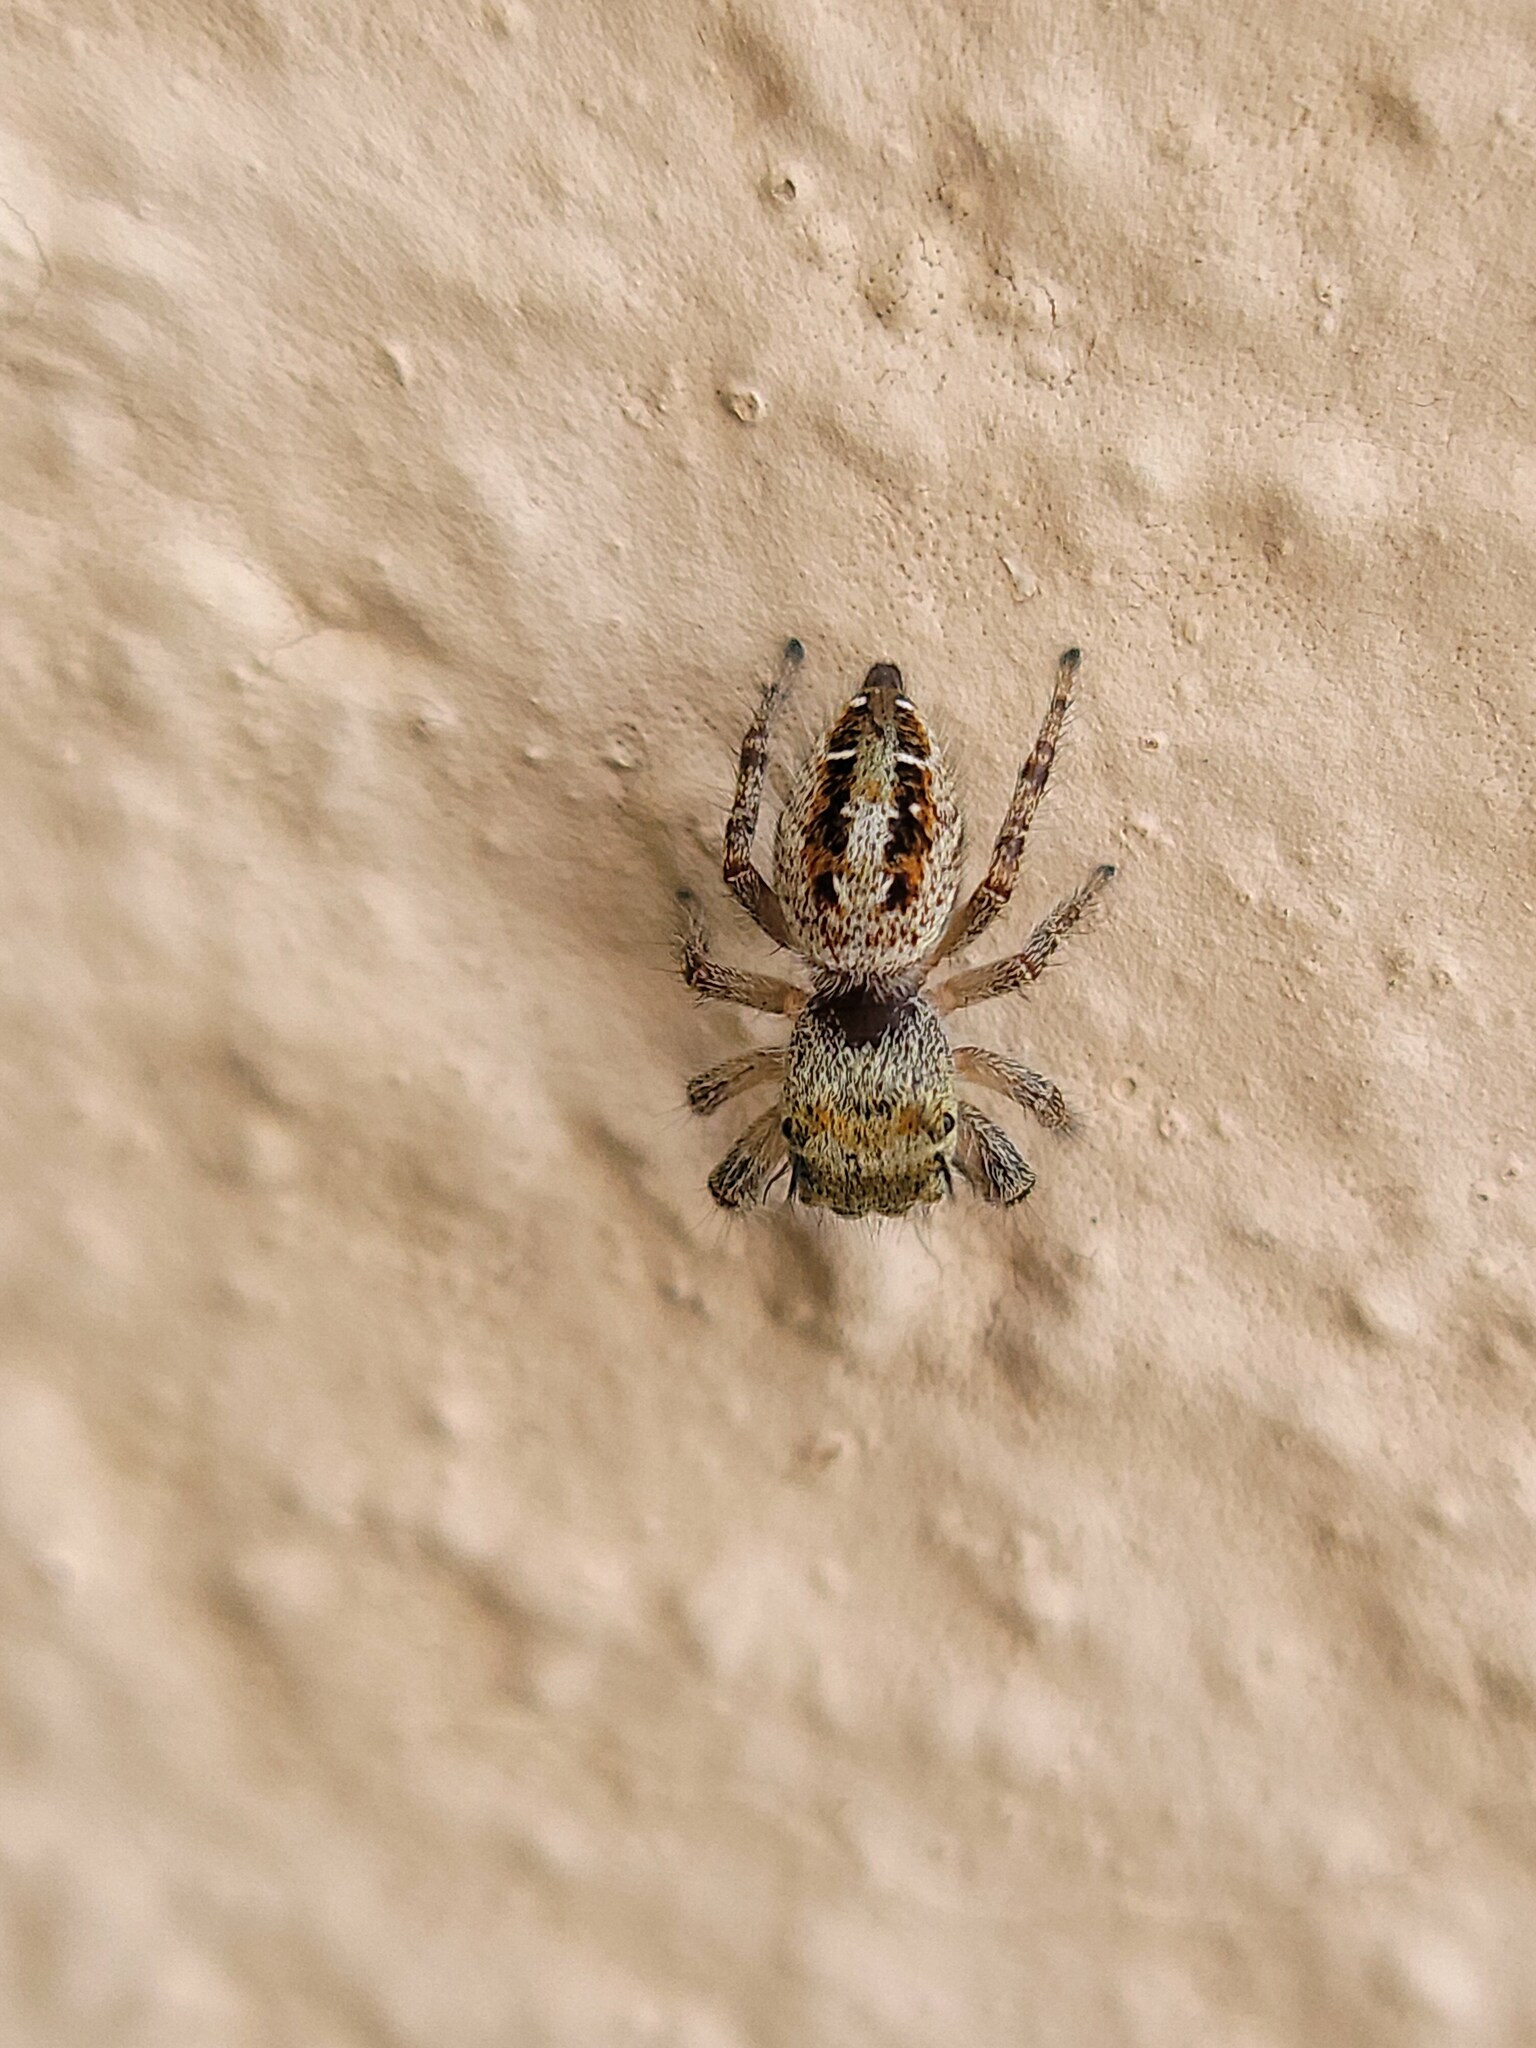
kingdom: Animalia
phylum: Arthropoda
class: Arachnida
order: Araneae
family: Salticidae
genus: Phidippus
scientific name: Phidippus arizonensis
